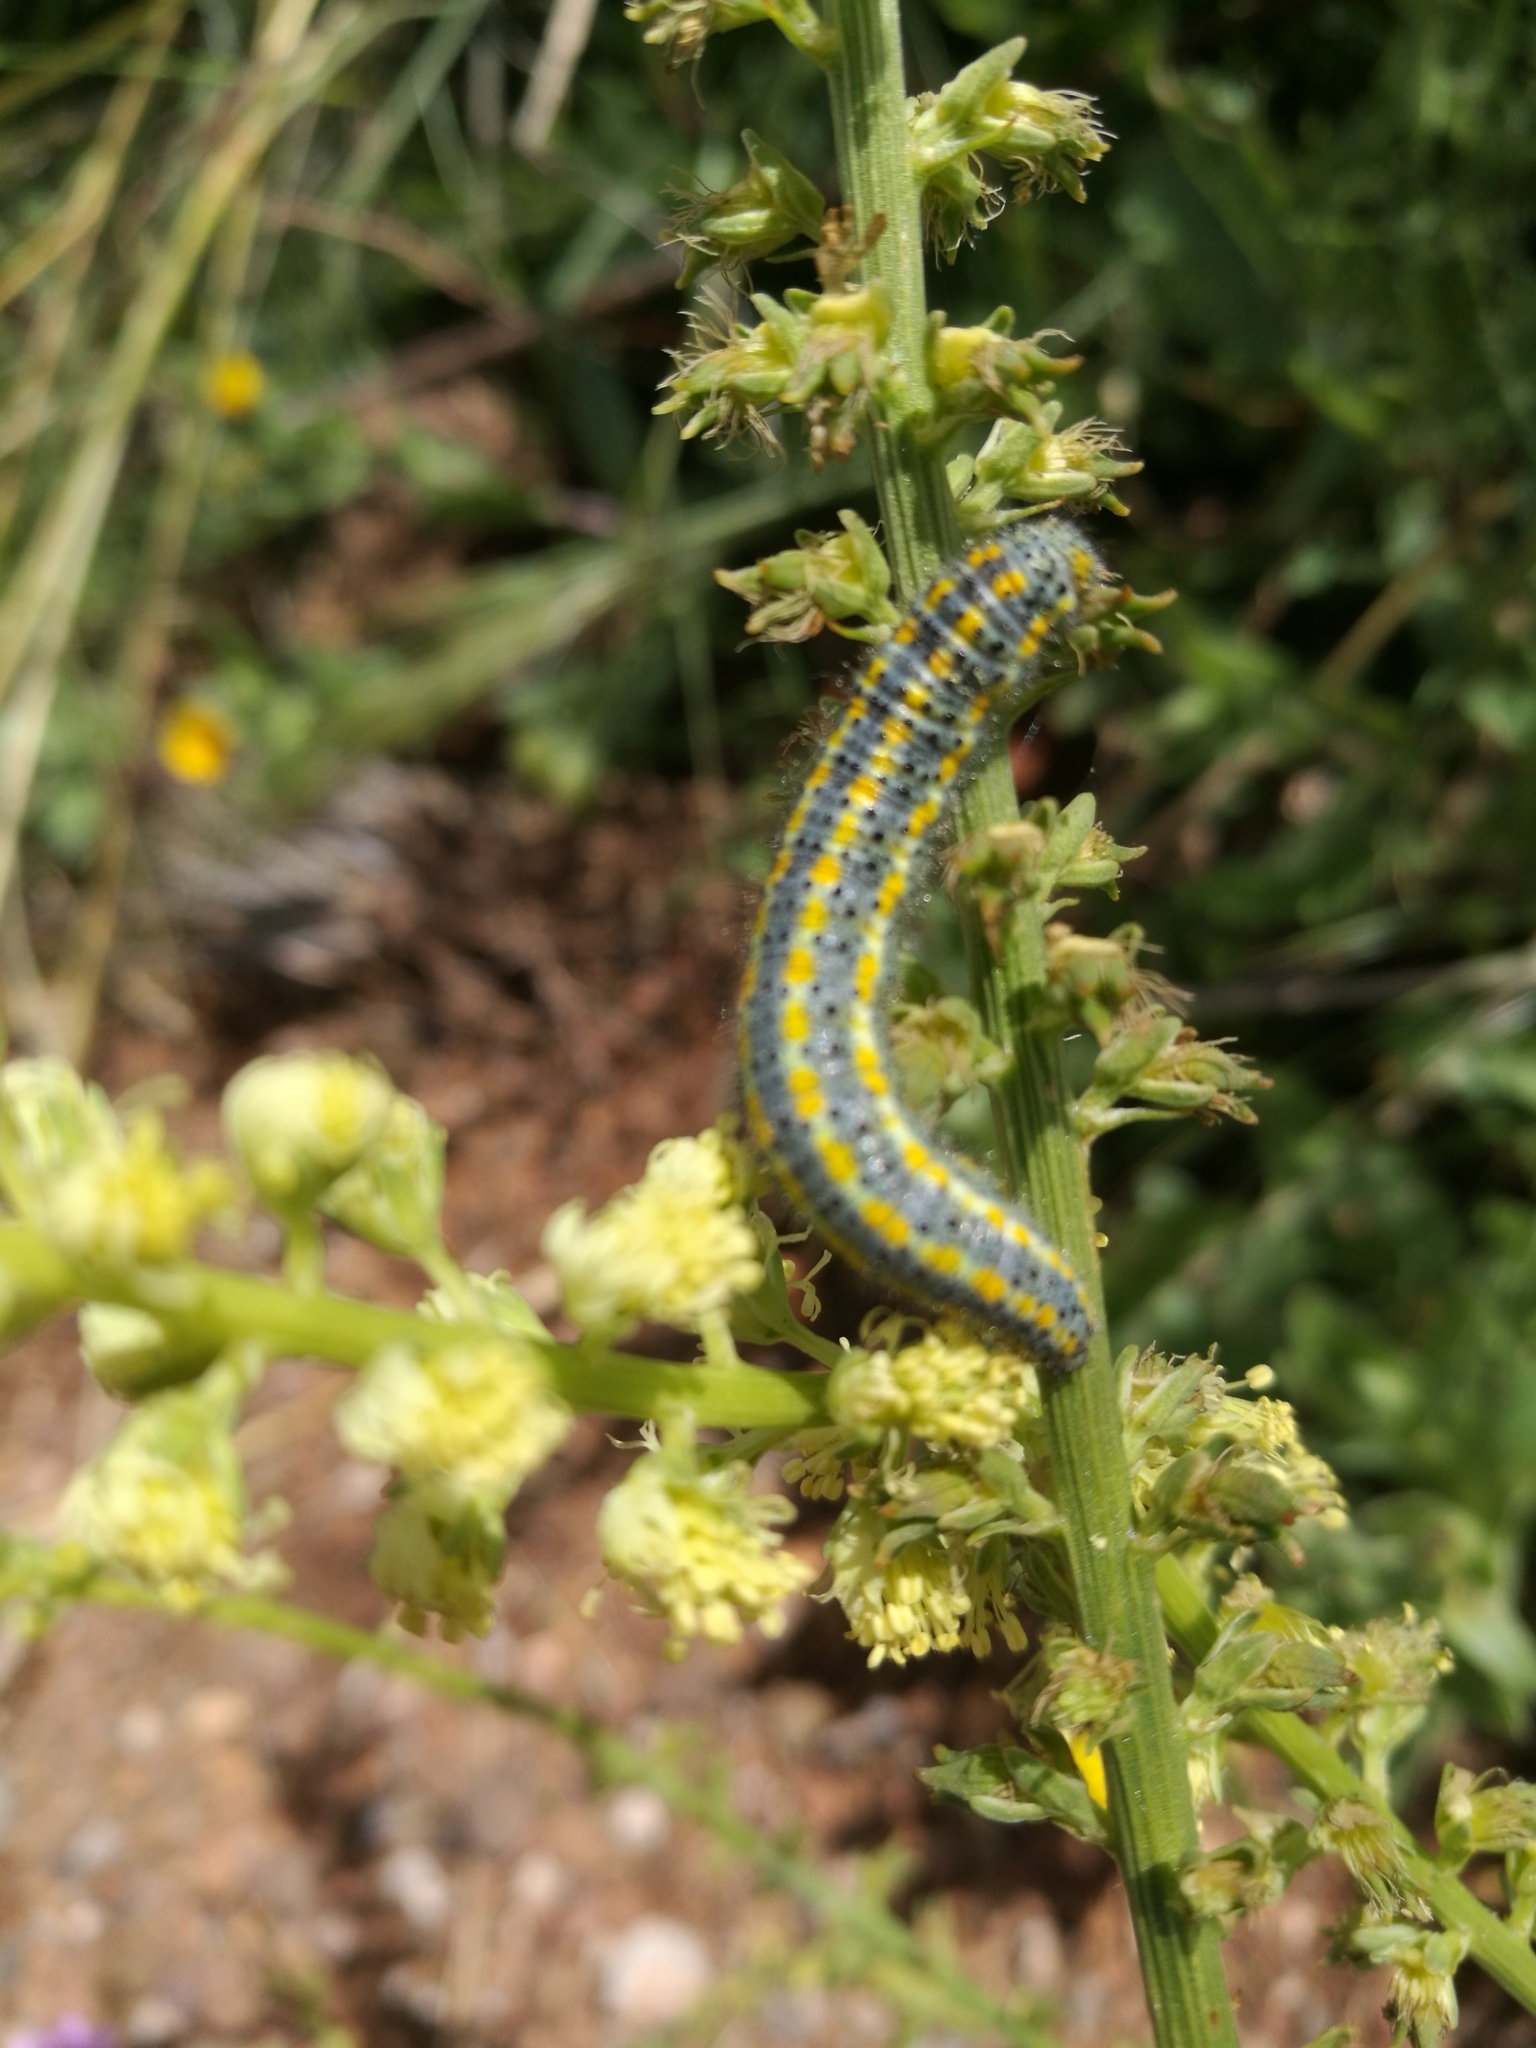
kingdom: Animalia
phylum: Arthropoda
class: Insecta
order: Lepidoptera
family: Pieridae
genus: Pontia
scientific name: Pontia daplidice
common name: Bath white
